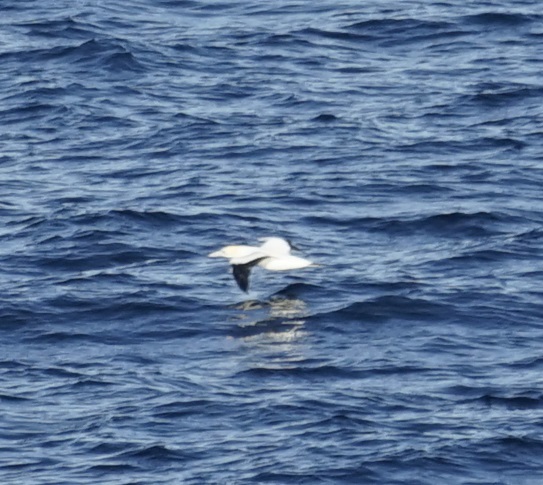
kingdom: Animalia
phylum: Chordata
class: Aves
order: Suliformes
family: Sulidae
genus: Morus
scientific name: Morus serrator
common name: Australasian gannet
